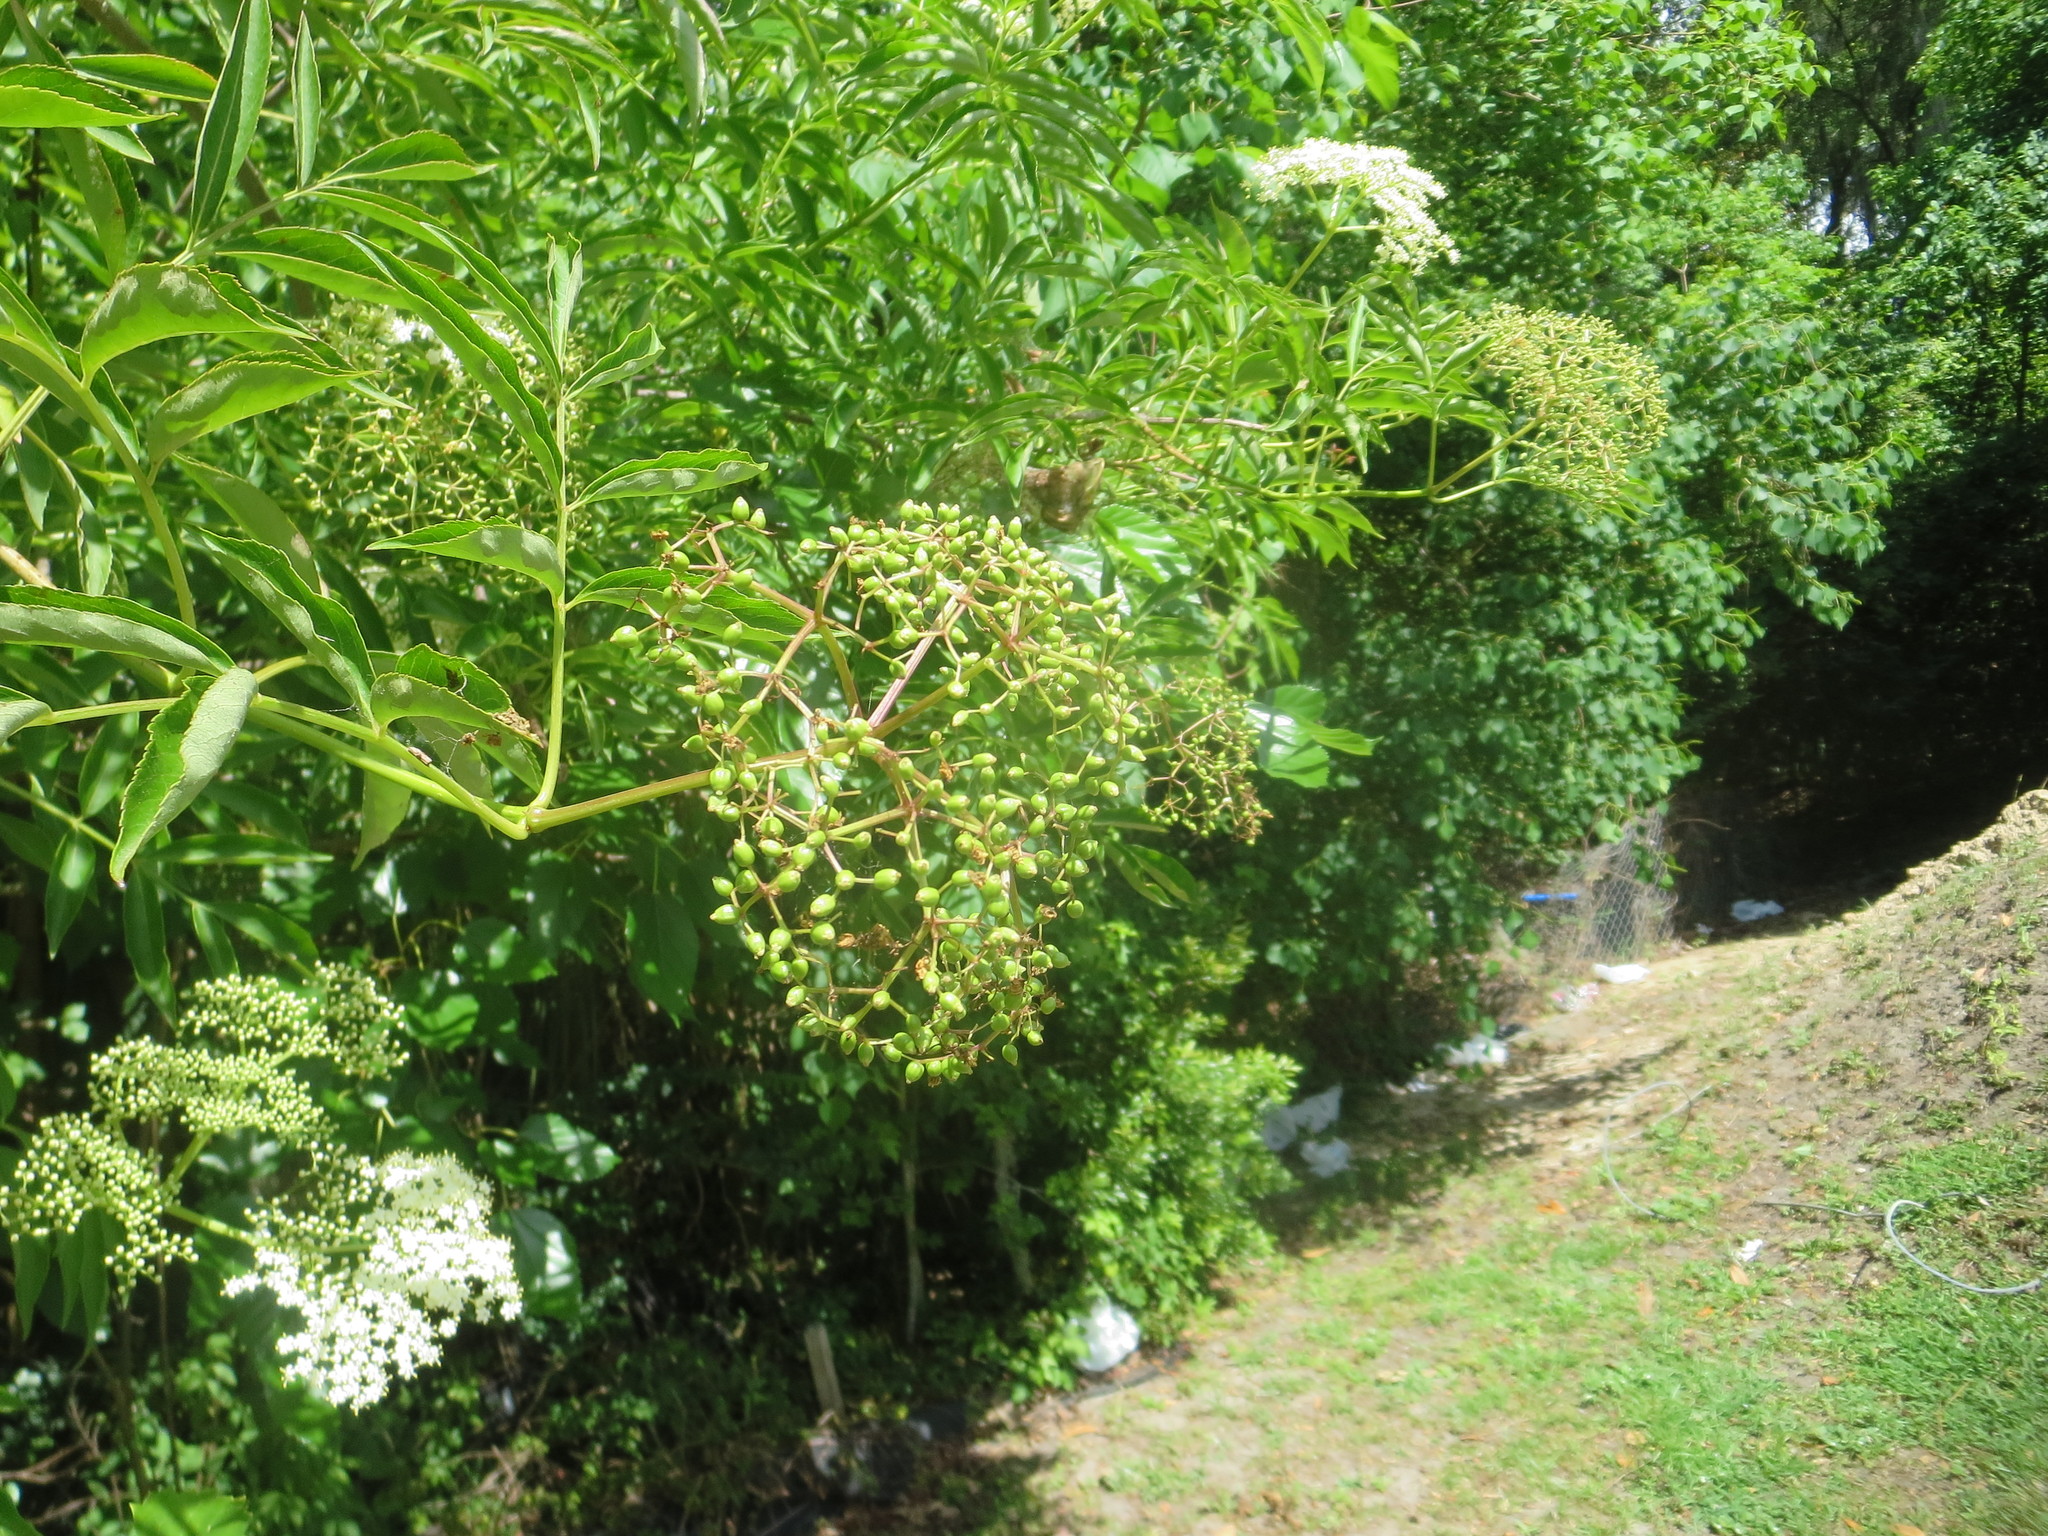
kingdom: Plantae
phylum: Tracheophyta
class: Magnoliopsida
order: Dipsacales
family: Viburnaceae
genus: Sambucus
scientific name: Sambucus canadensis
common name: American elder
